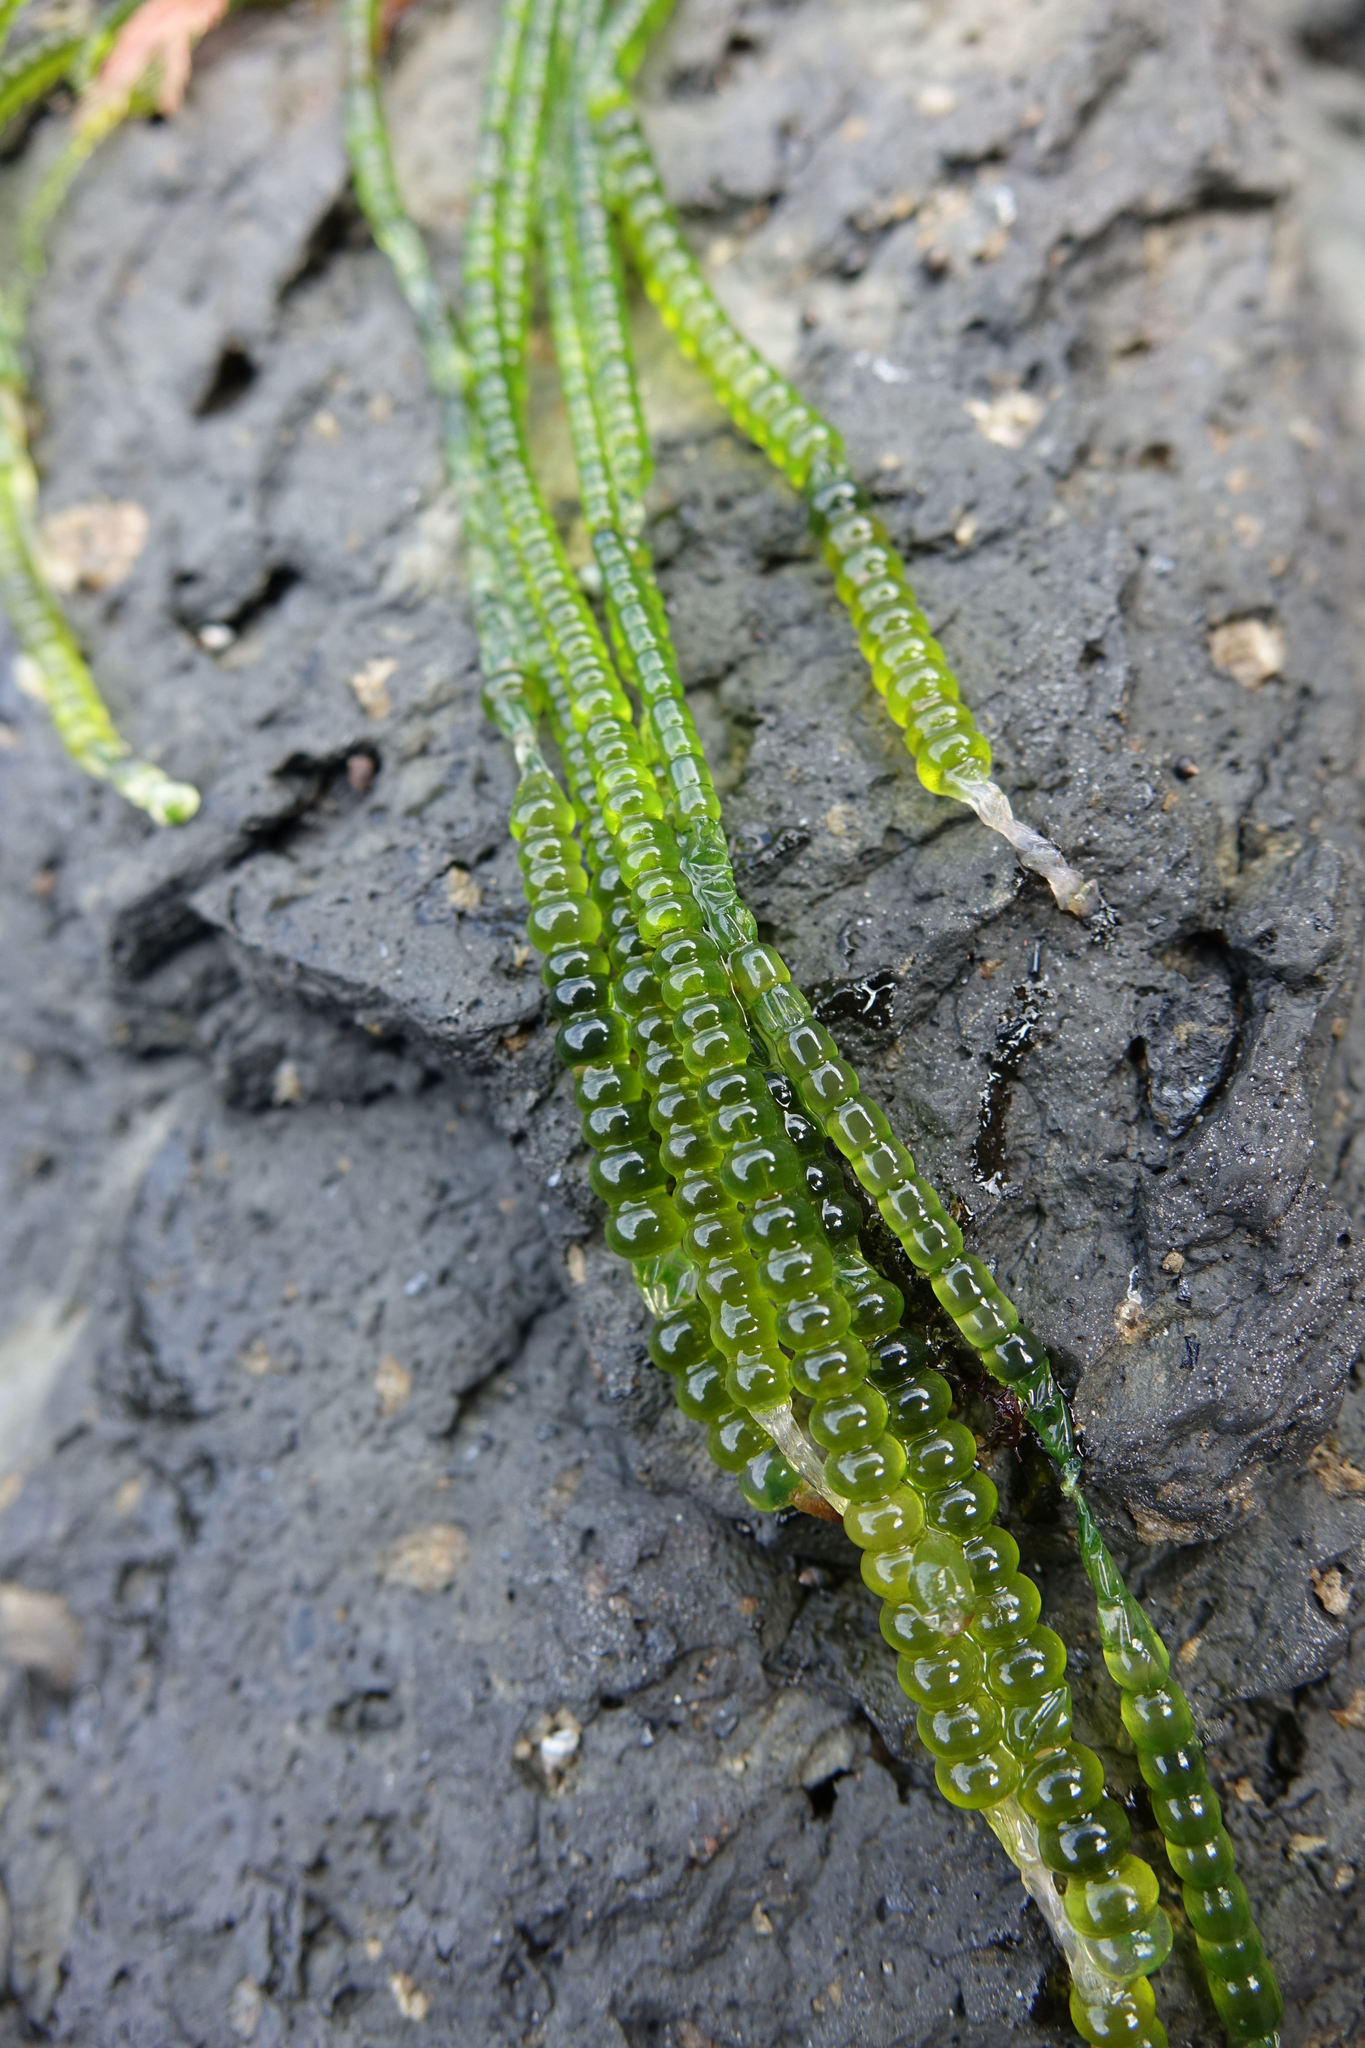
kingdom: Plantae
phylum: Chlorophyta
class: Ulvophyceae
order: Cladophorales
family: Cladophoraceae
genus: Chaetomorpha
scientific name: Chaetomorpha coliformis
